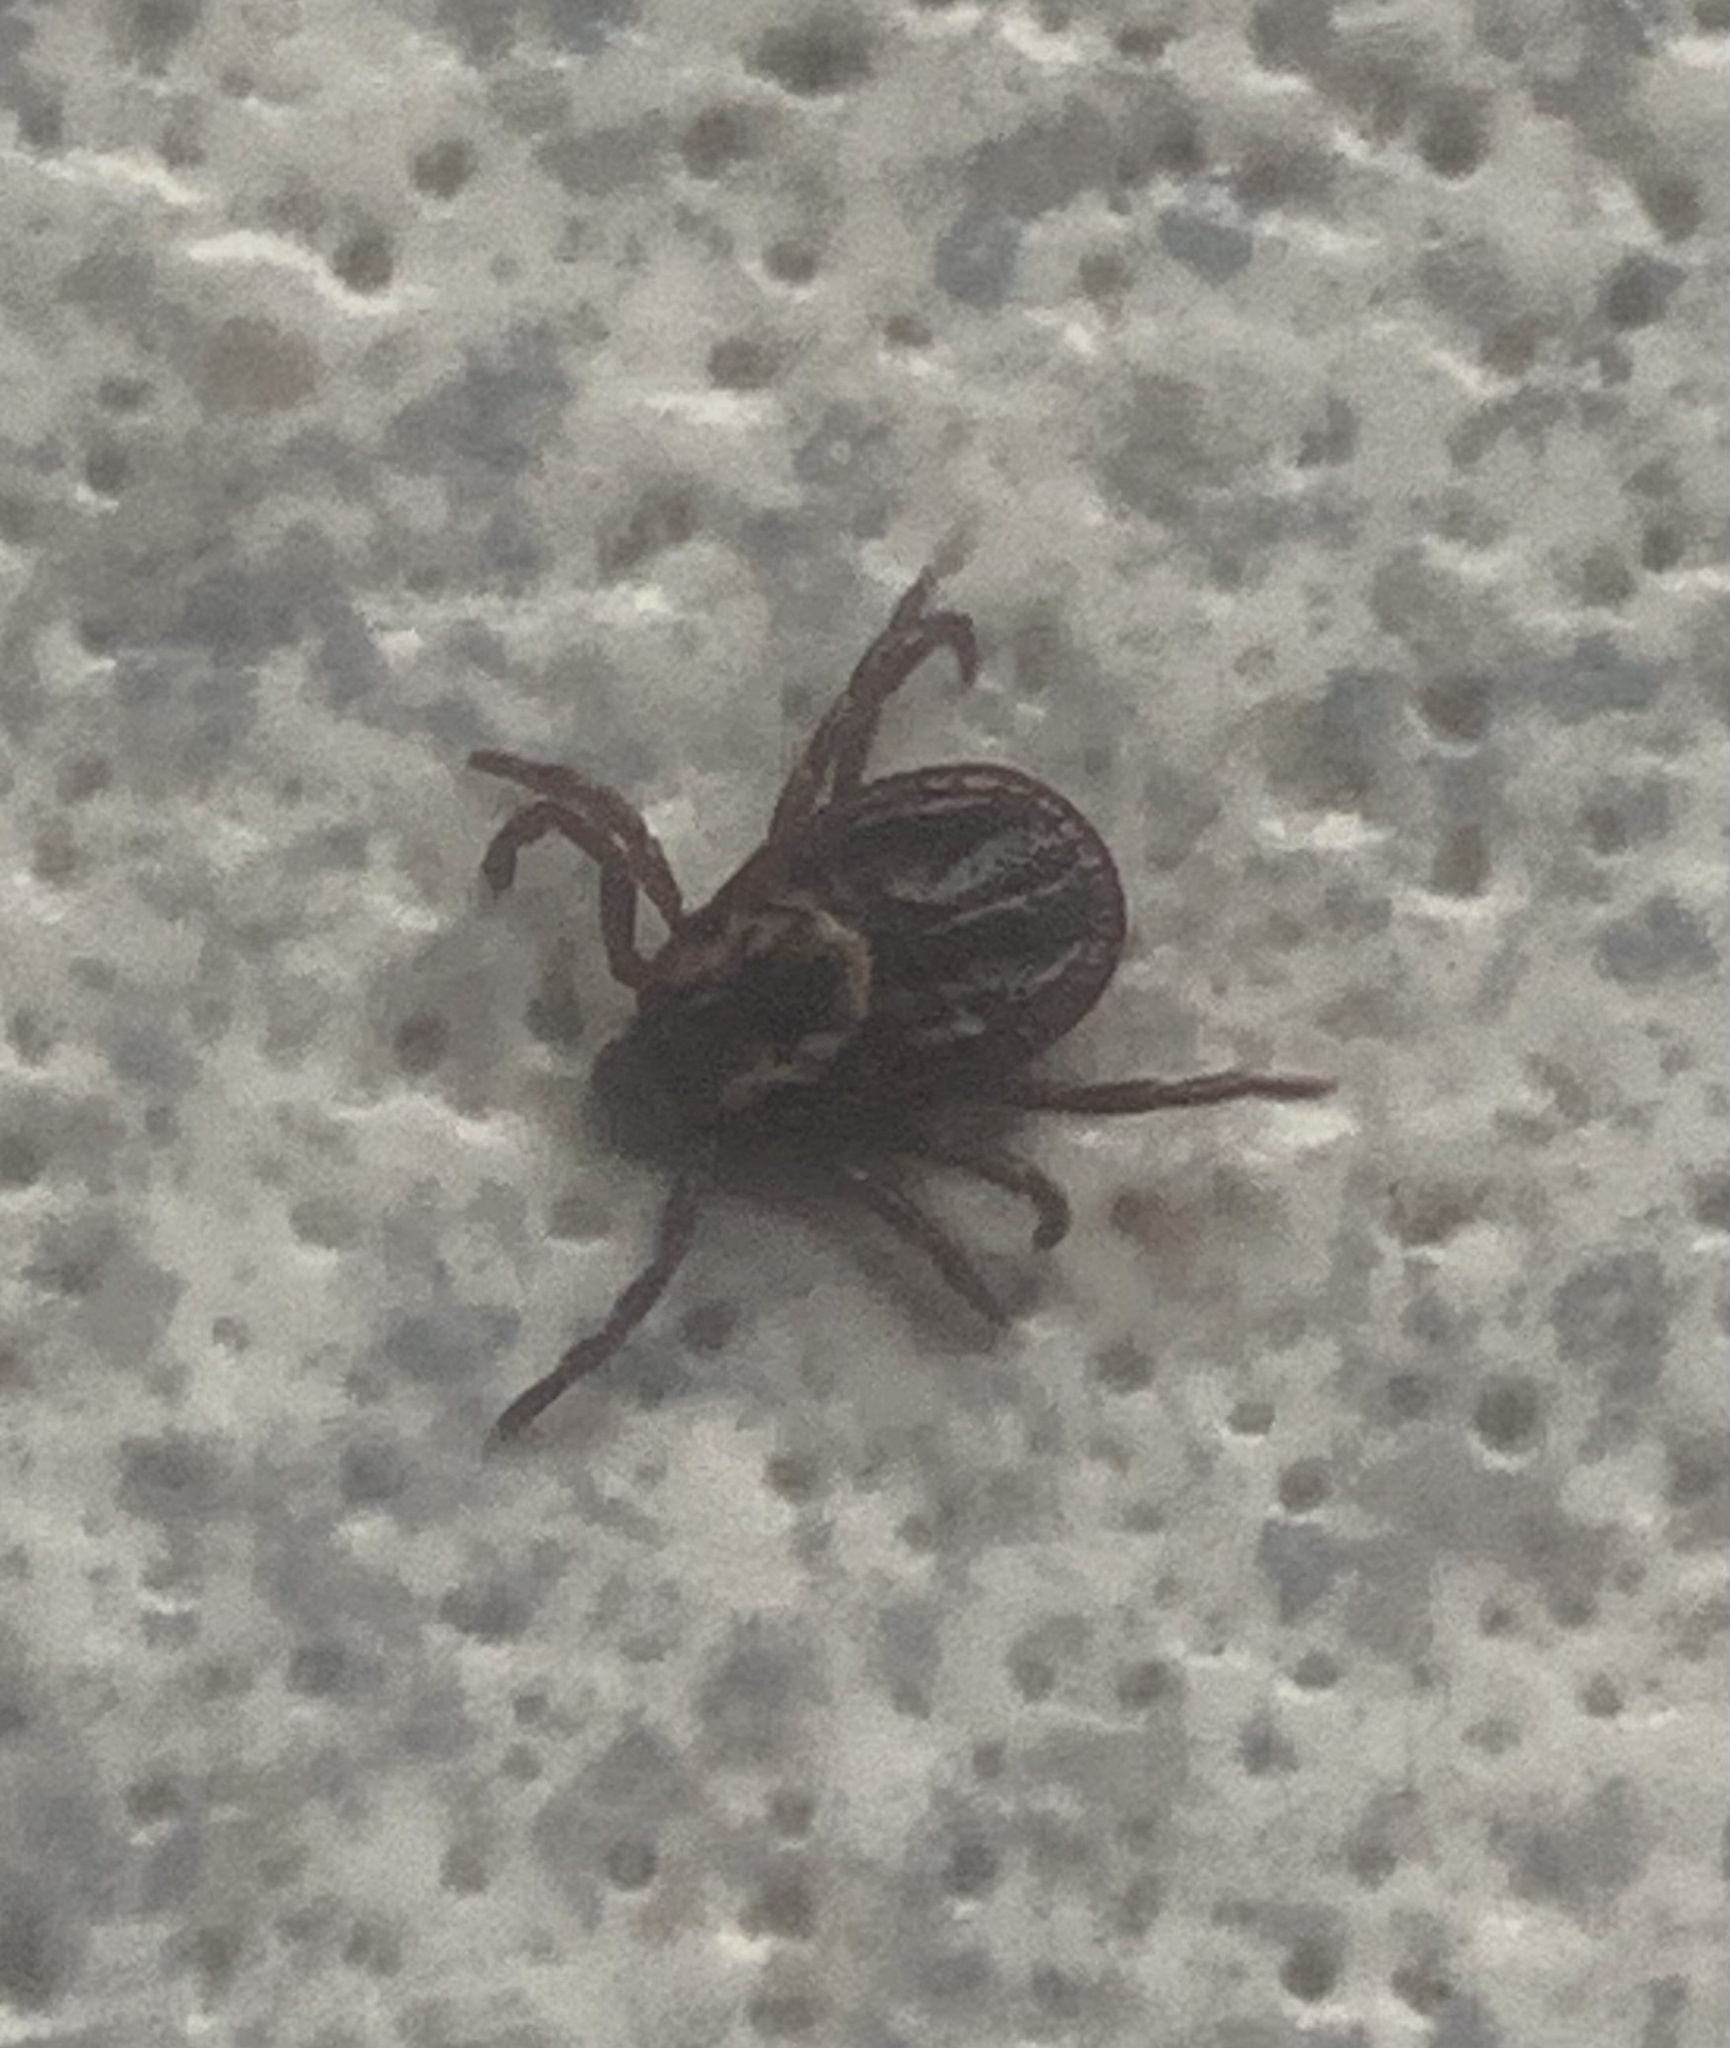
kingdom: Animalia
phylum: Arthropoda
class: Arachnida
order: Ixodida
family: Ixodidae
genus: Dermacentor
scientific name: Dermacentor variabilis
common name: American dog tick
